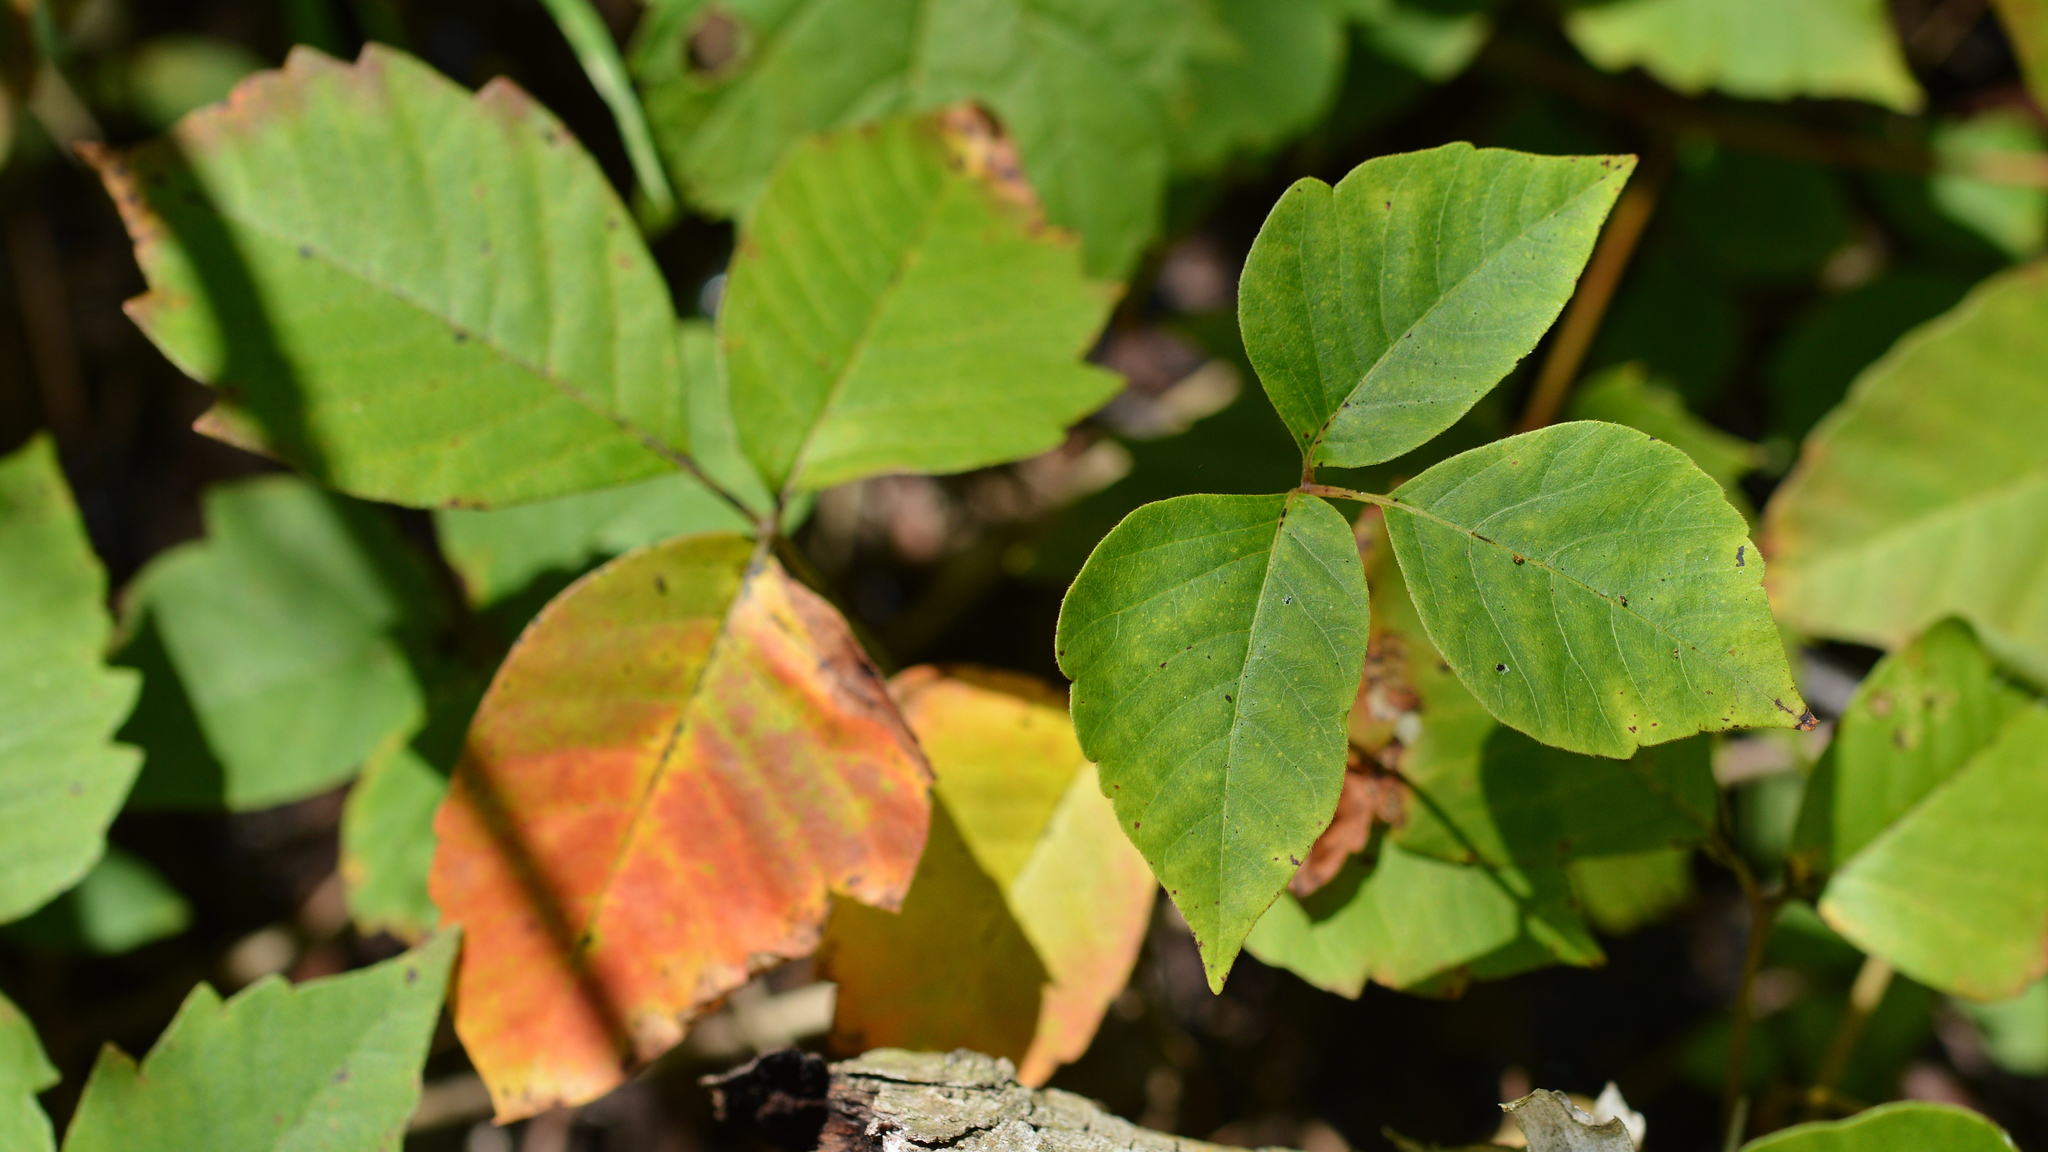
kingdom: Plantae
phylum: Tracheophyta
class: Magnoliopsida
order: Sapindales
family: Anacardiaceae
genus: Toxicodendron
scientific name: Toxicodendron rydbergii
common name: Rydberg's poison-ivy
